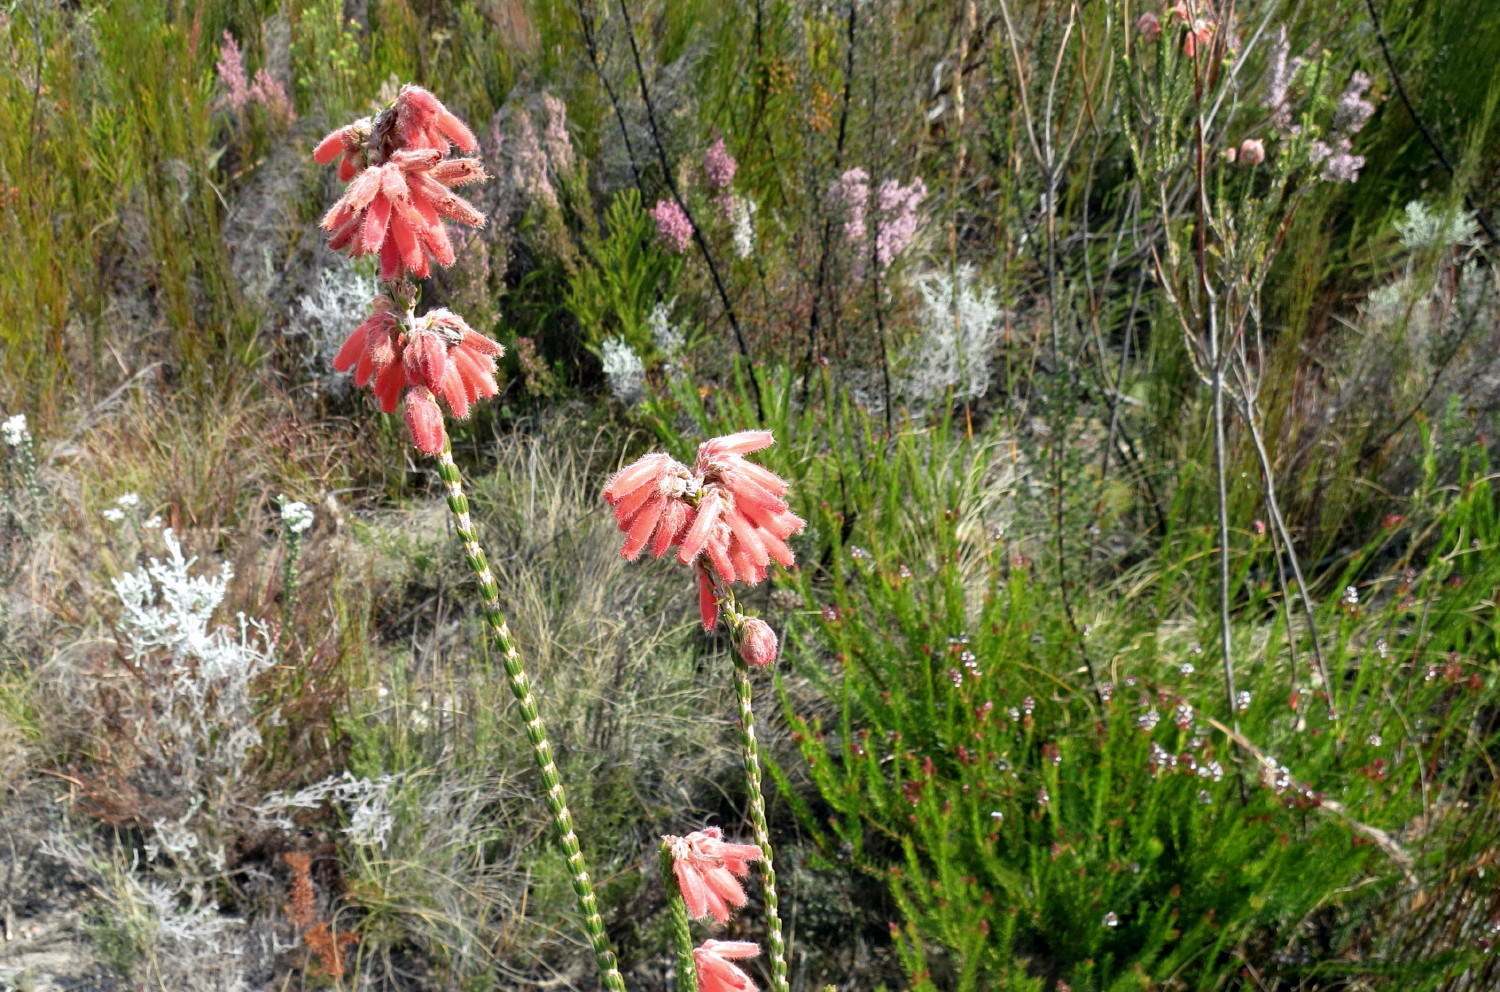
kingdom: Plantae
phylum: Tracheophyta
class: Magnoliopsida
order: Ericales
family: Ericaceae
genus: Erica
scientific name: Erica cerinthoides
